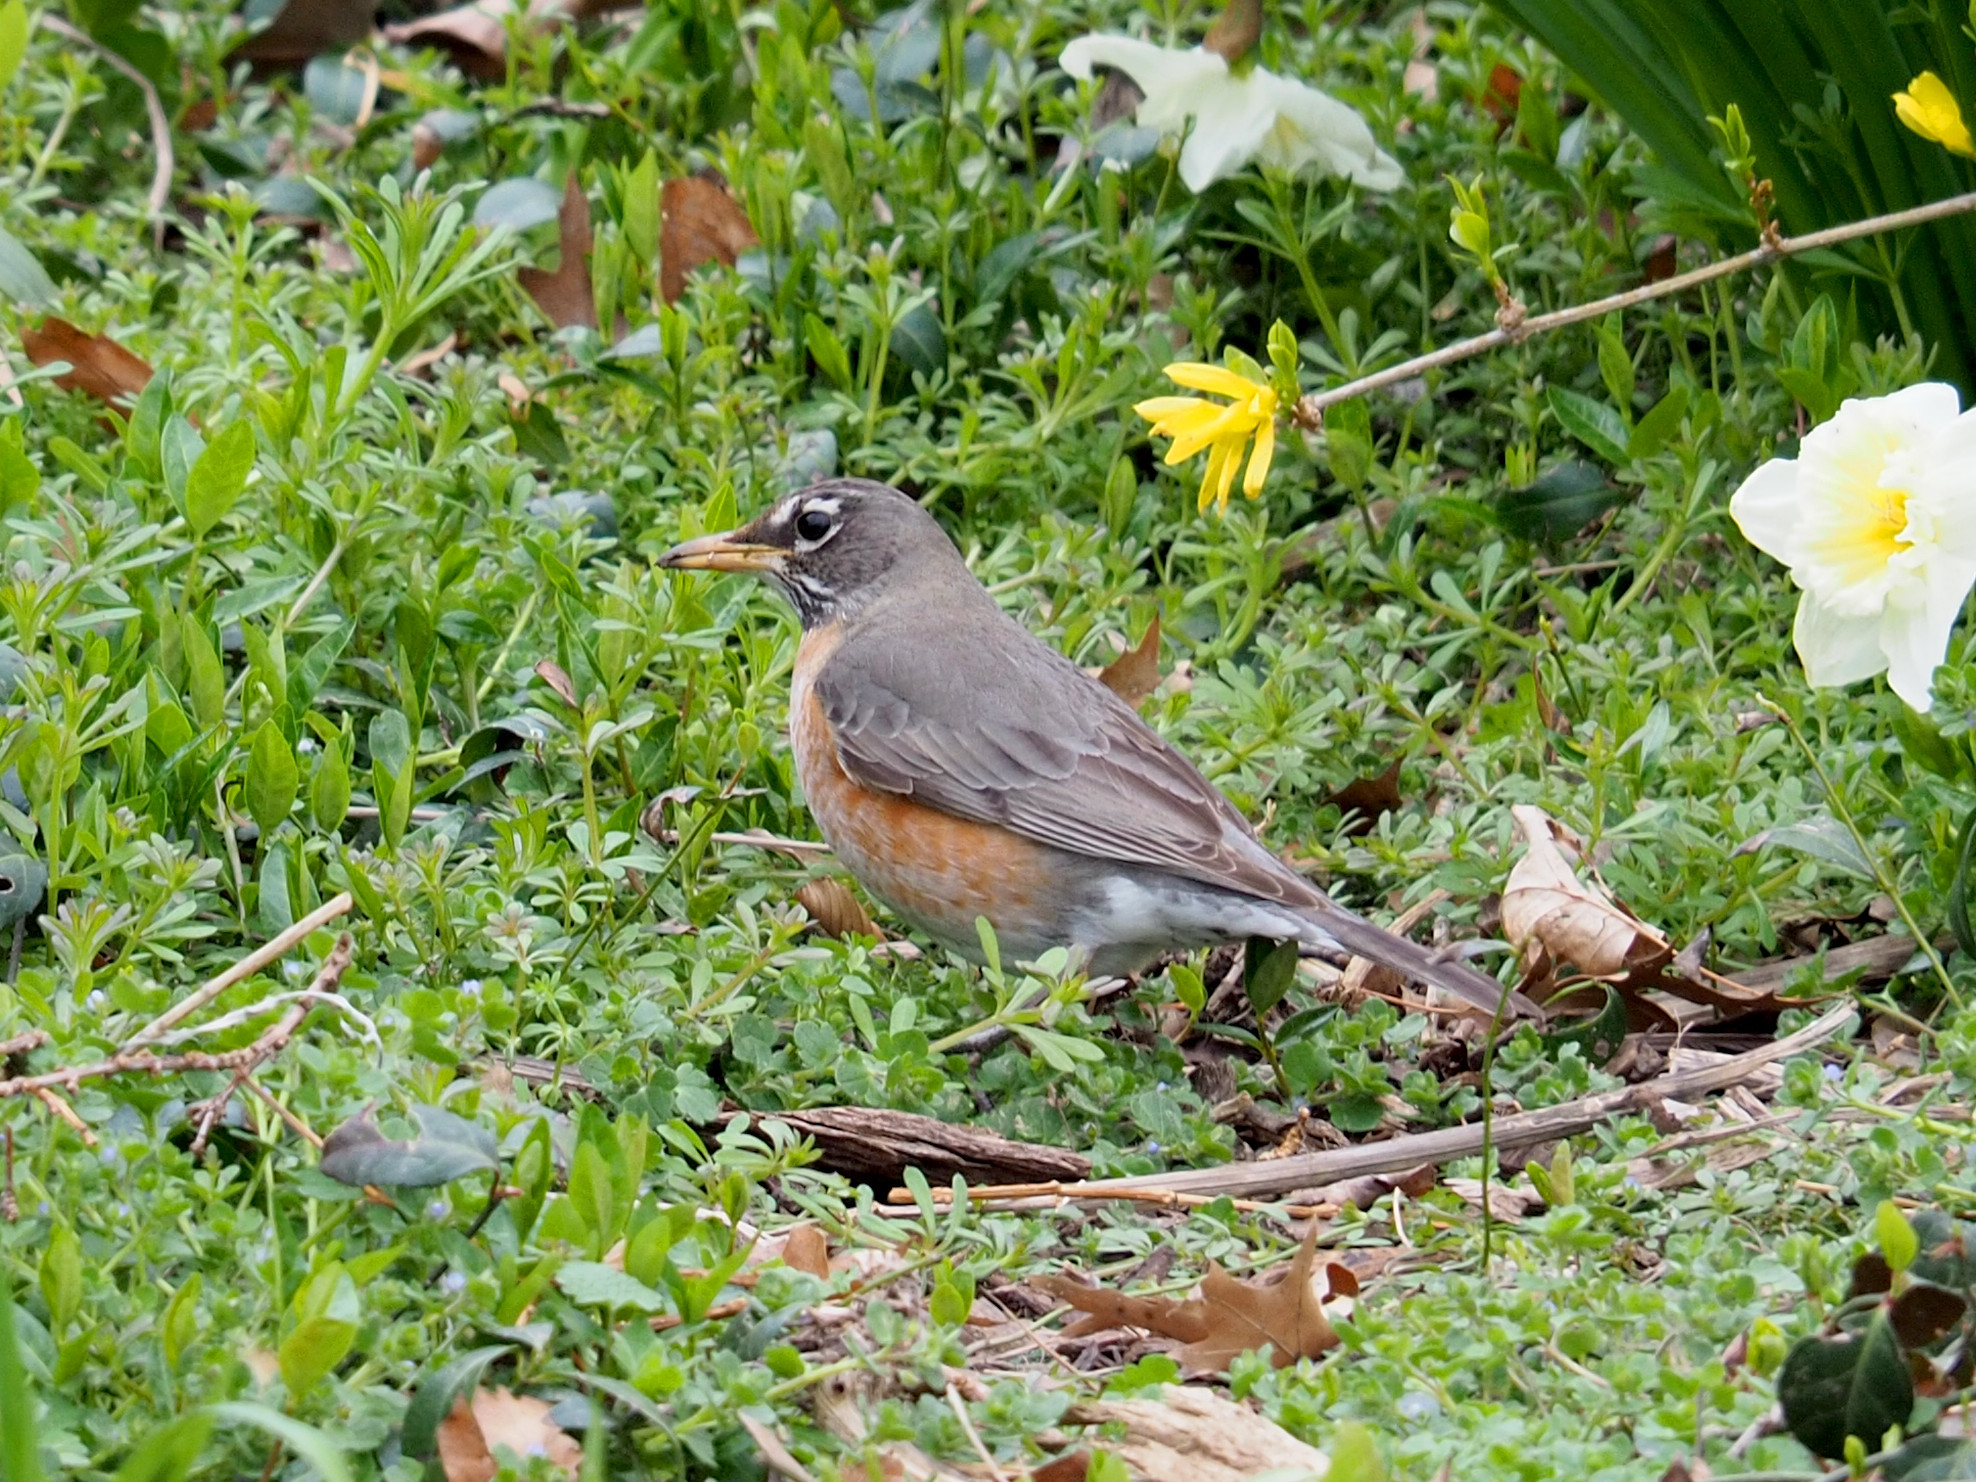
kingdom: Animalia
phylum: Chordata
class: Aves
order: Passeriformes
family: Turdidae
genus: Turdus
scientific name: Turdus migratorius
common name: American robin
